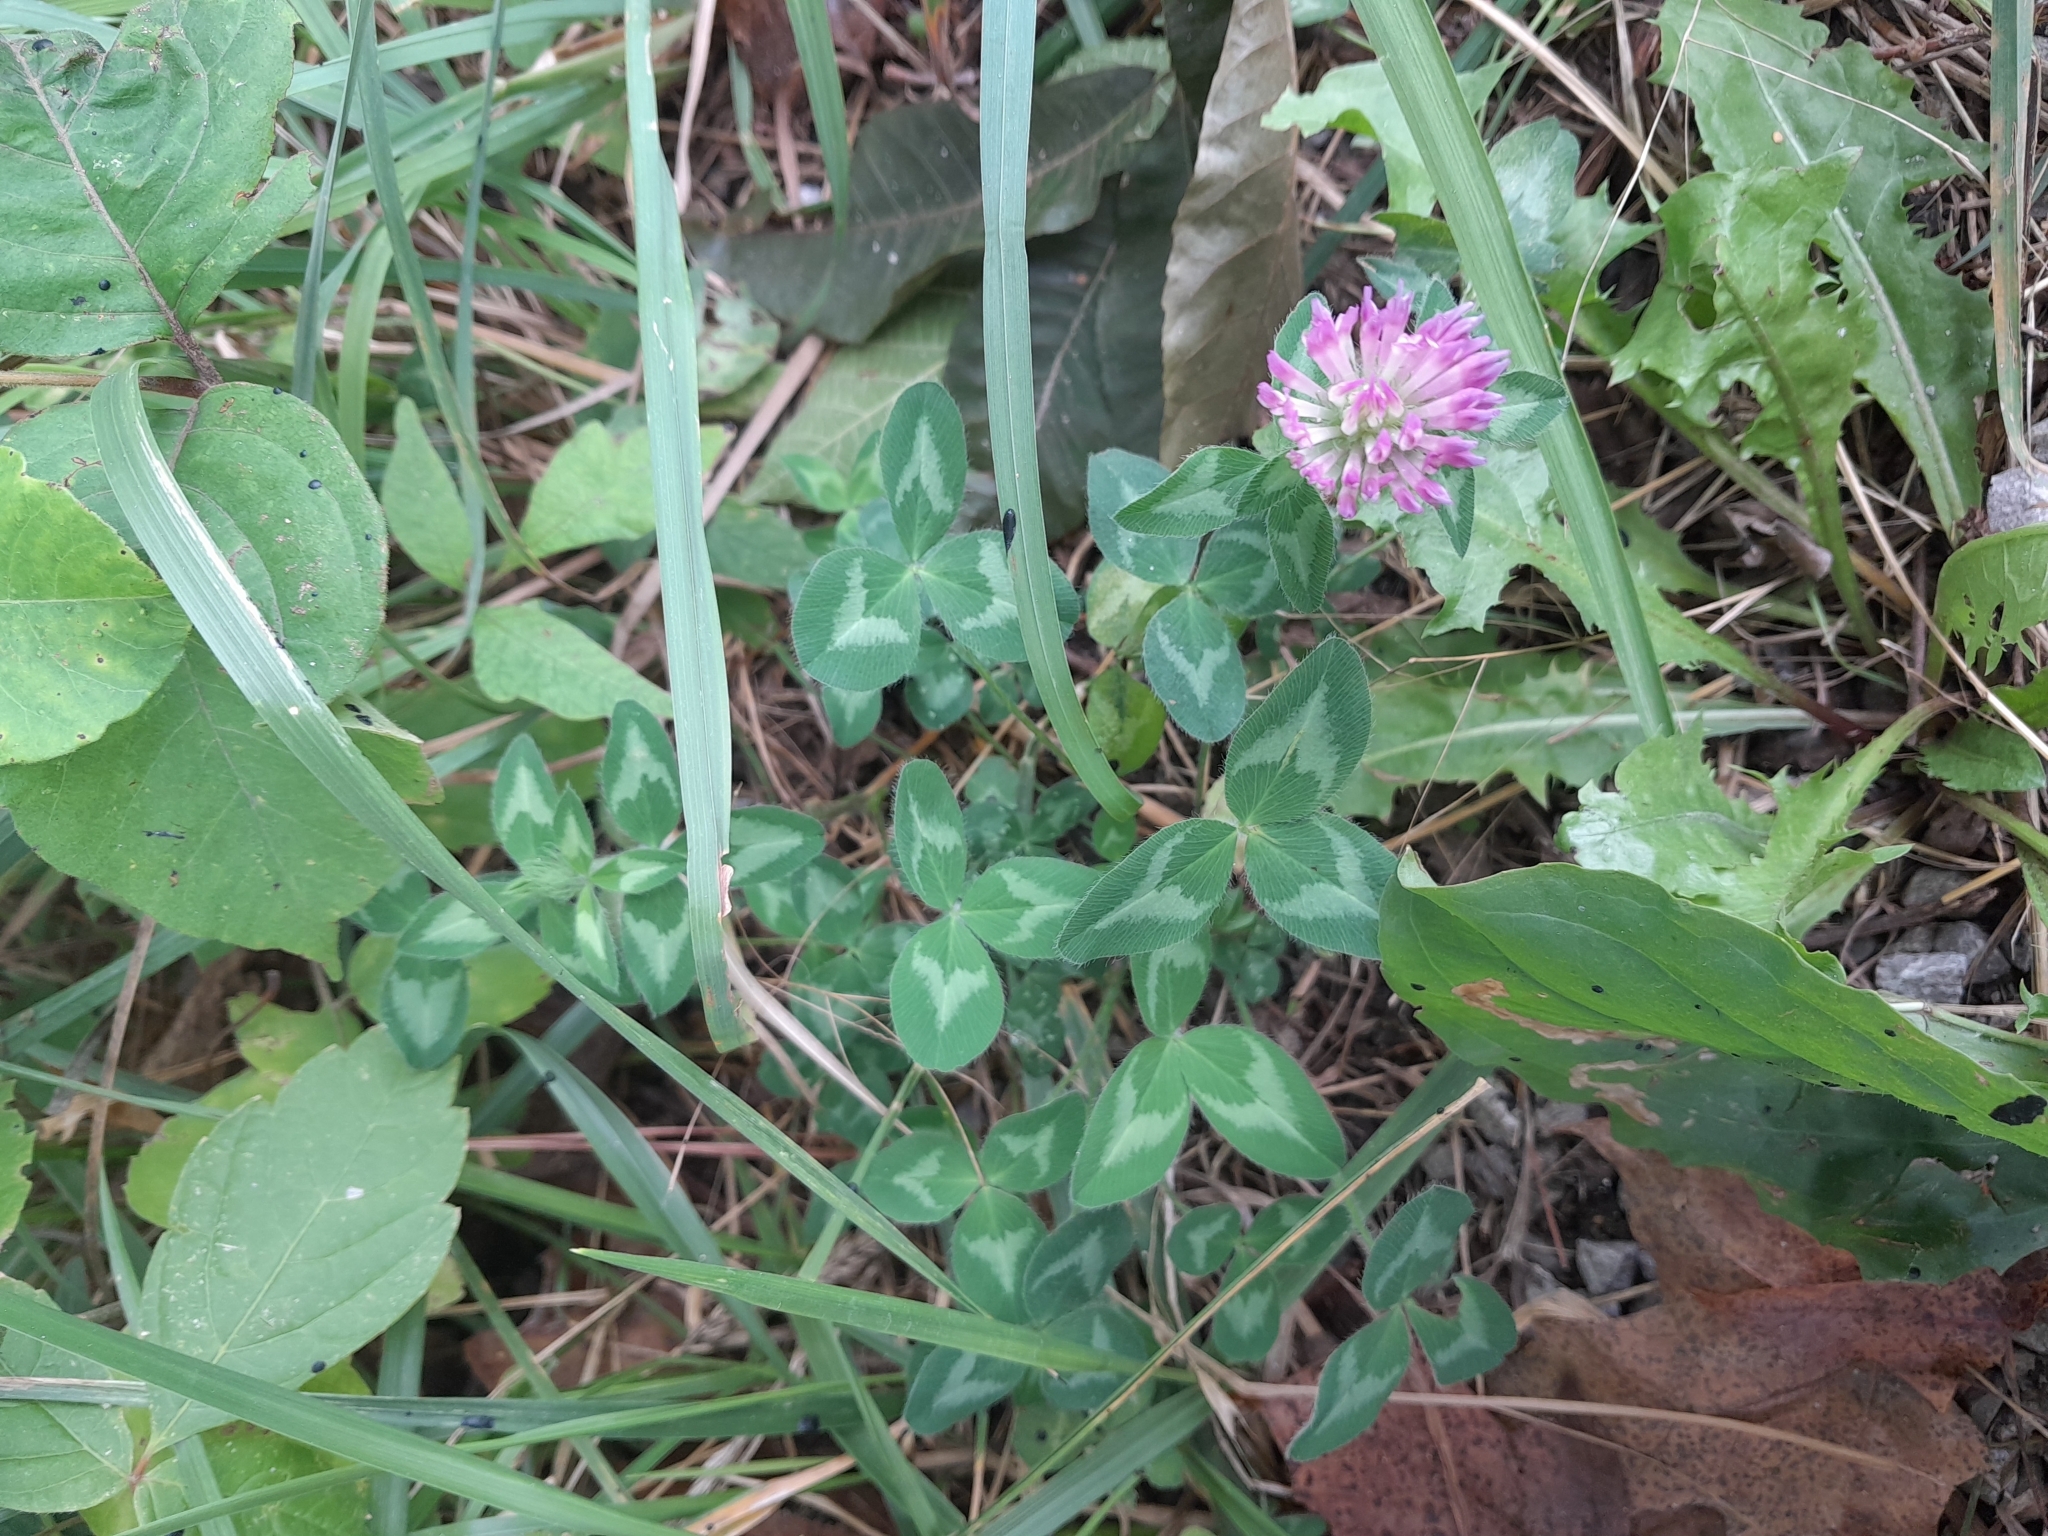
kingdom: Plantae
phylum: Tracheophyta
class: Magnoliopsida
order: Fabales
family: Fabaceae
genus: Trifolium
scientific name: Trifolium pratense
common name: Red clover
